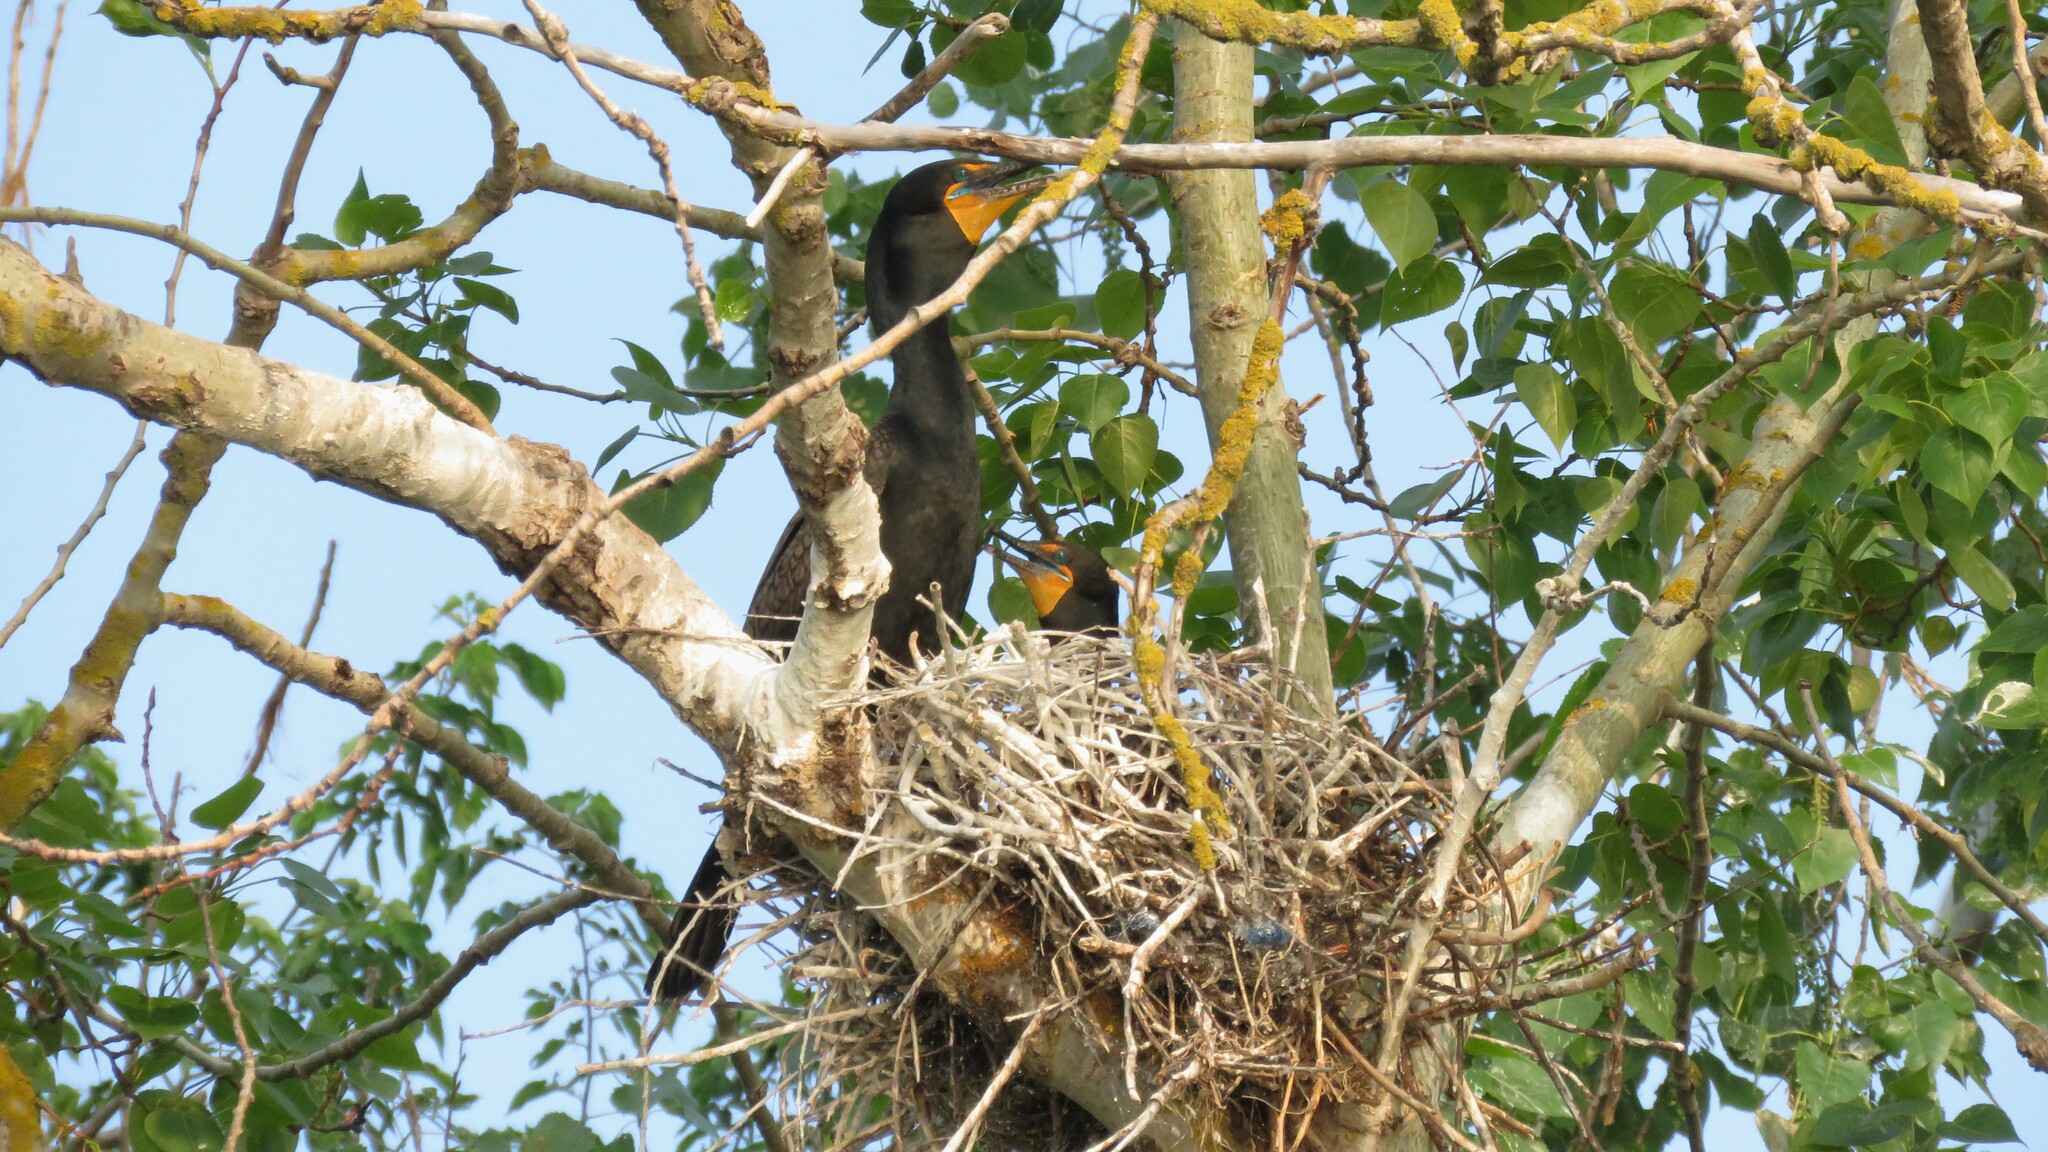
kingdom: Animalia
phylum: Chordata
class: Aves
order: Suliformes
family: Phalacrocoracidae
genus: Phalacrocorax
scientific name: Phalacrocorax auritus
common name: Double-crested cormorant
